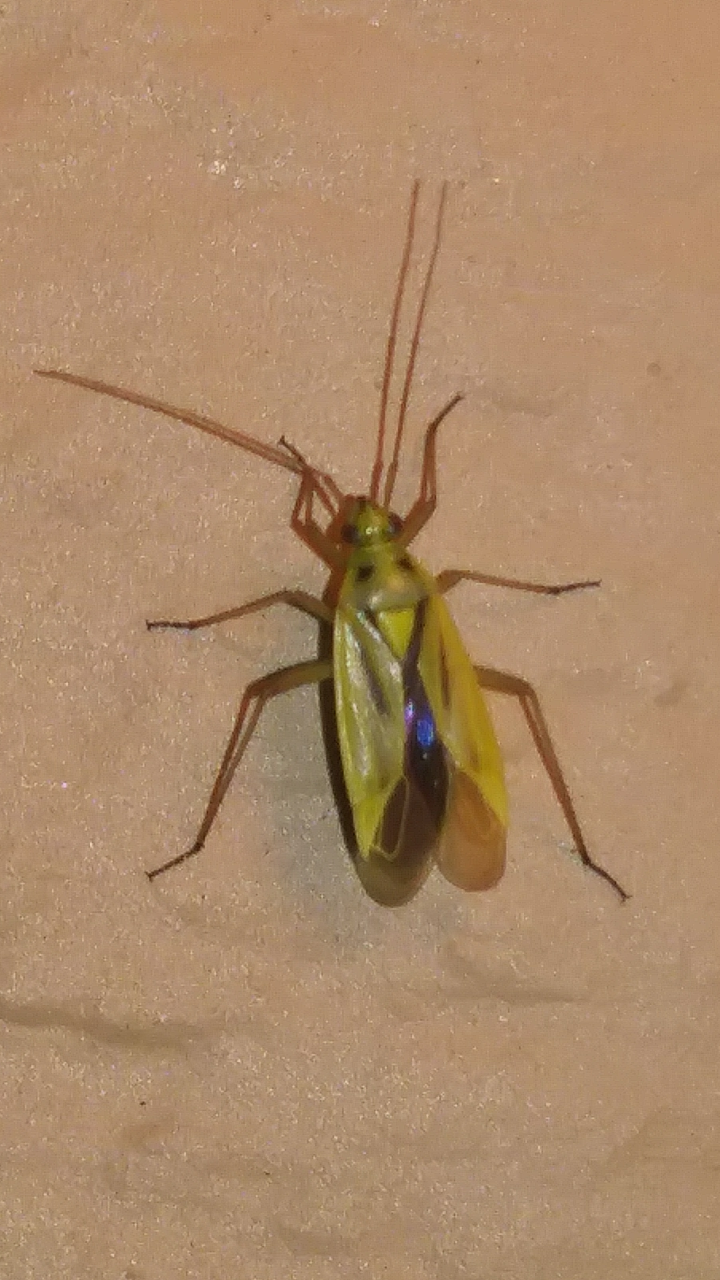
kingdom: Animalia
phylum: Arthropoda
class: Insecta
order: Hemiptera
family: Miridae
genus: Stenotus
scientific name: Stenotus binotatus
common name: Plant bug
